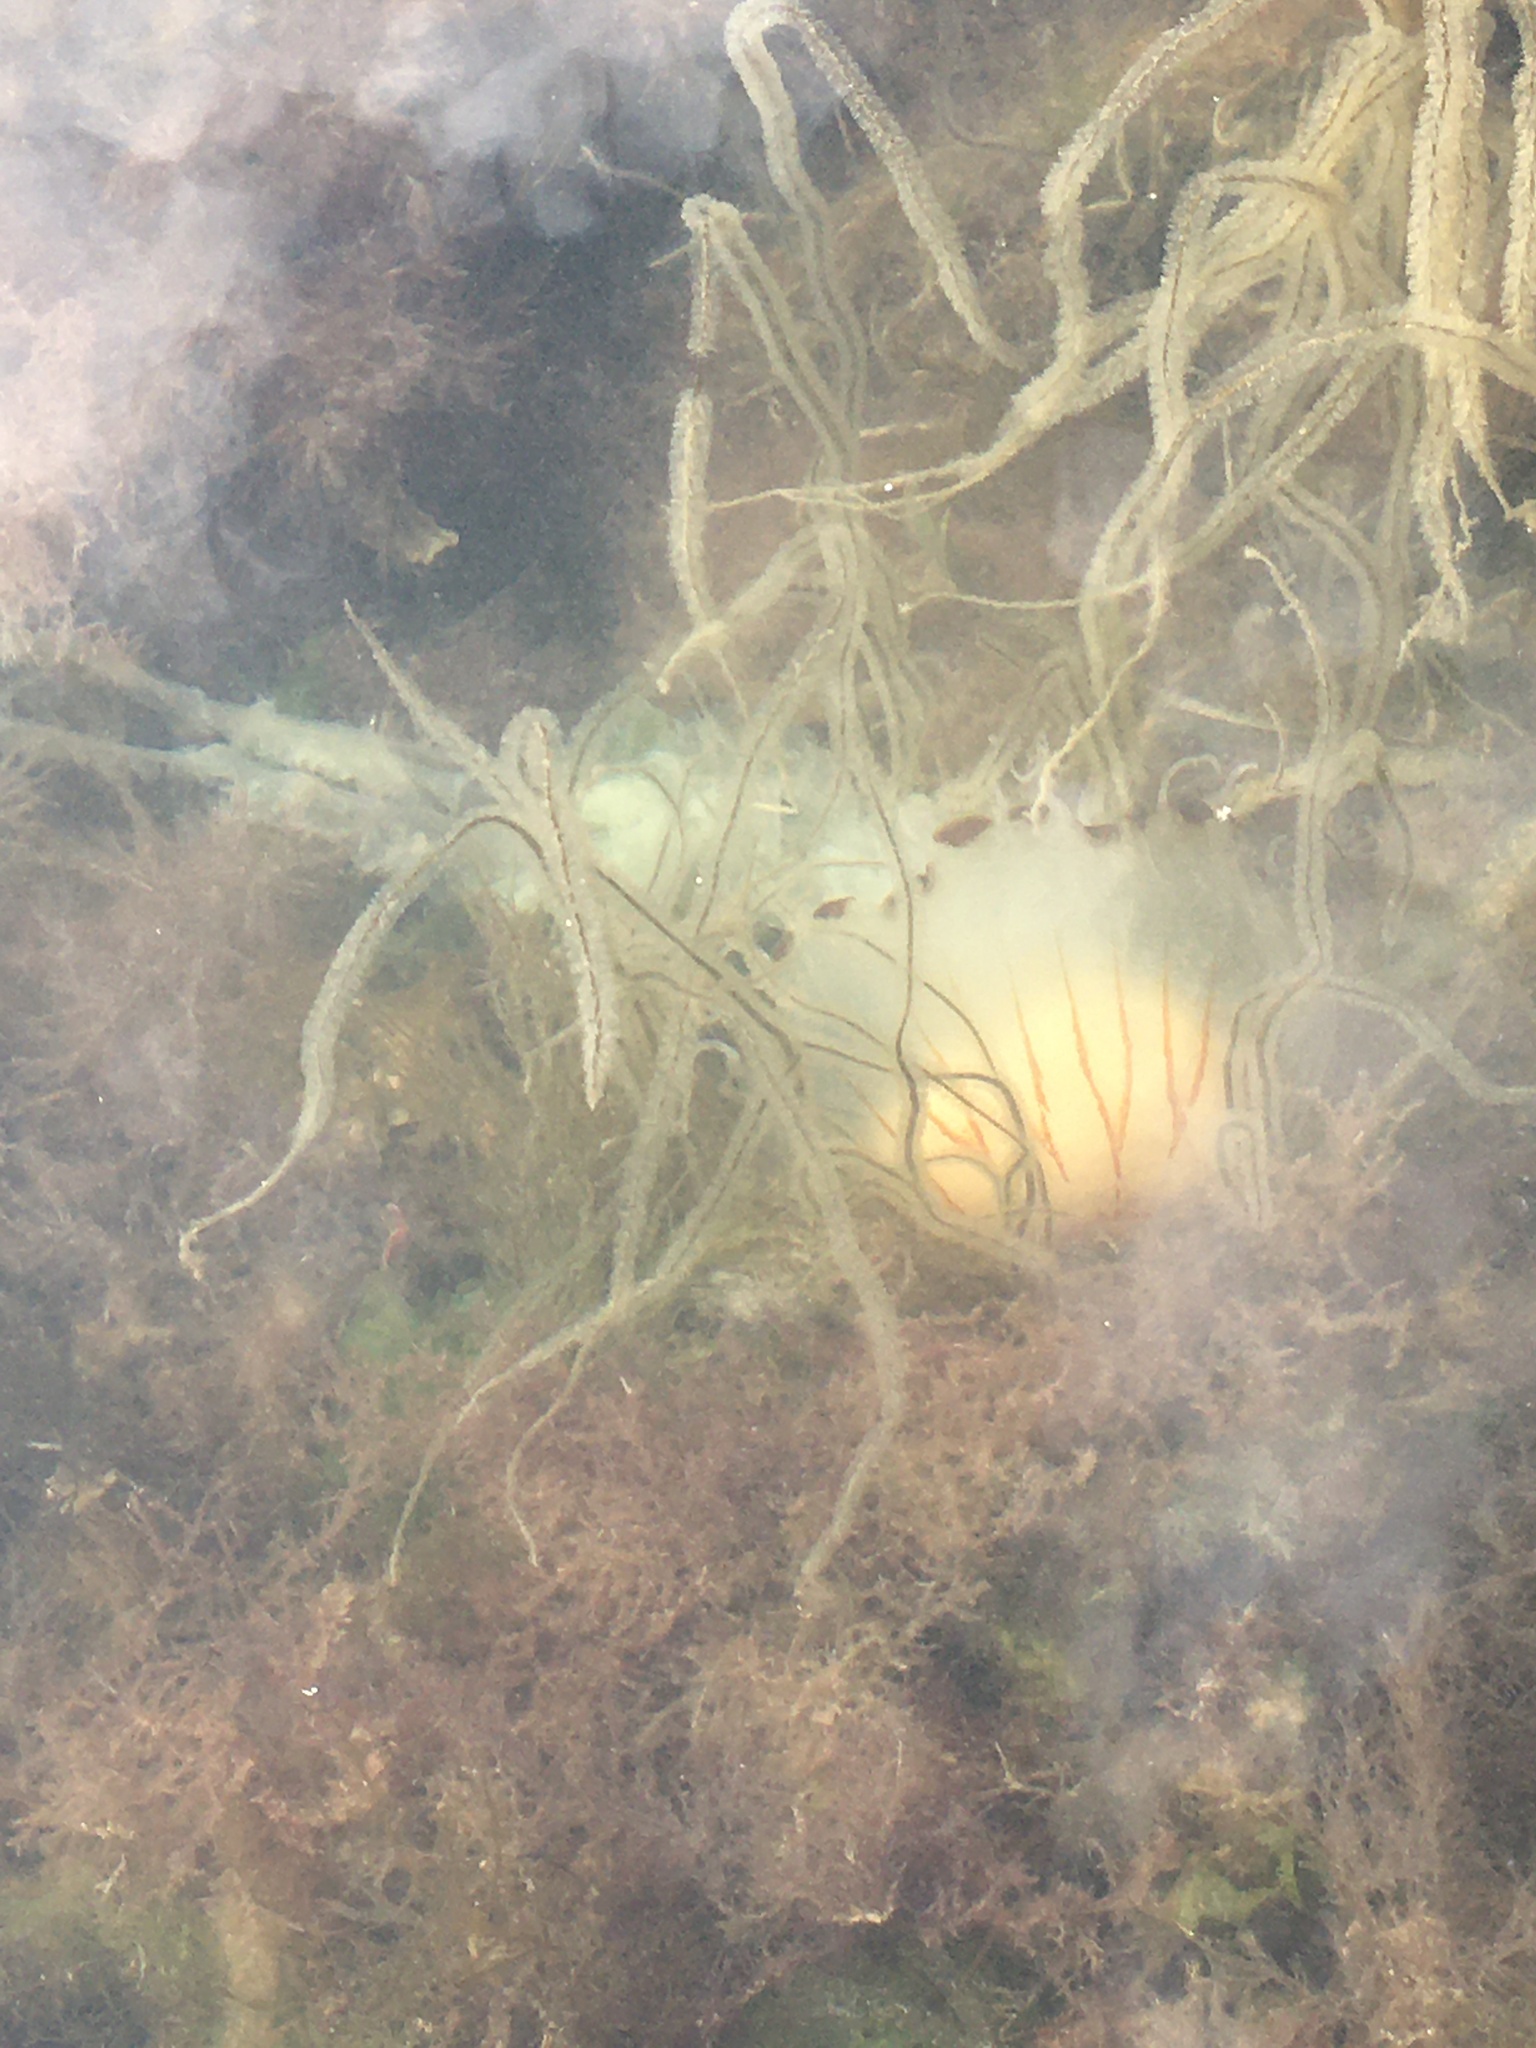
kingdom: Animalia
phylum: Cnidaria
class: Scyphozoa
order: Semaeostomeae
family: Pelagiidae
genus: Chrysaora
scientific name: Chrysaora hysoscella
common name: Compass jellyfish
